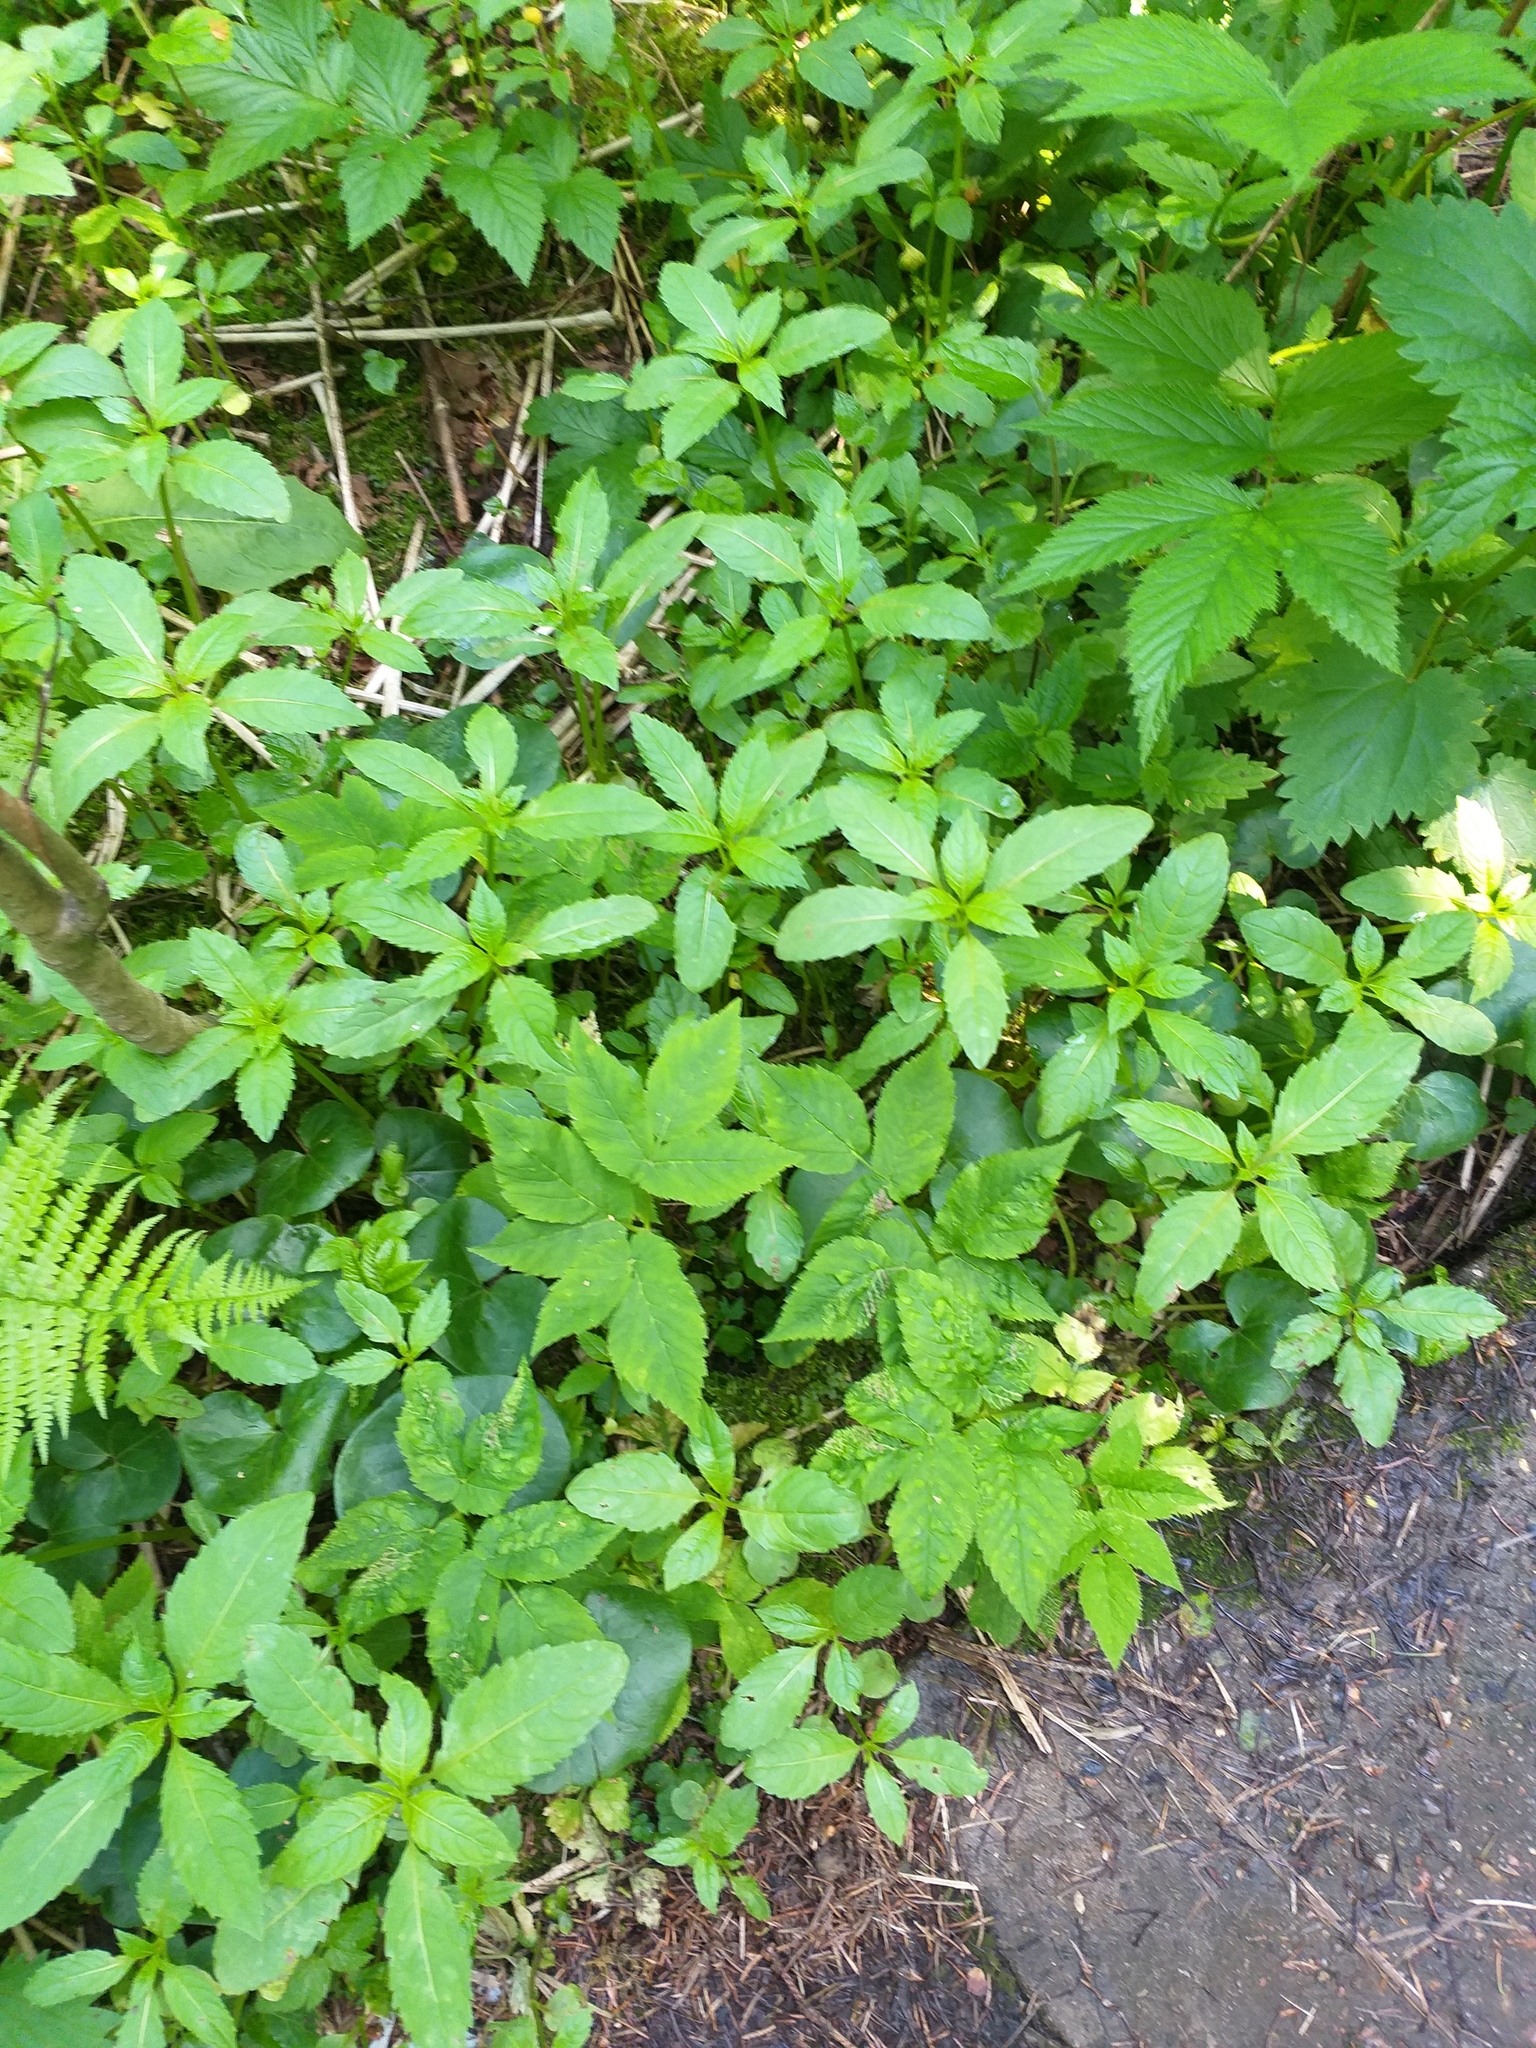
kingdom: Plantae
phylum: Tracheophyta
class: Magnoliopsida
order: Ericales
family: Balsaminaceae
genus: Impatiens
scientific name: Impatiens glandulifera
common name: Himalayan balsam
